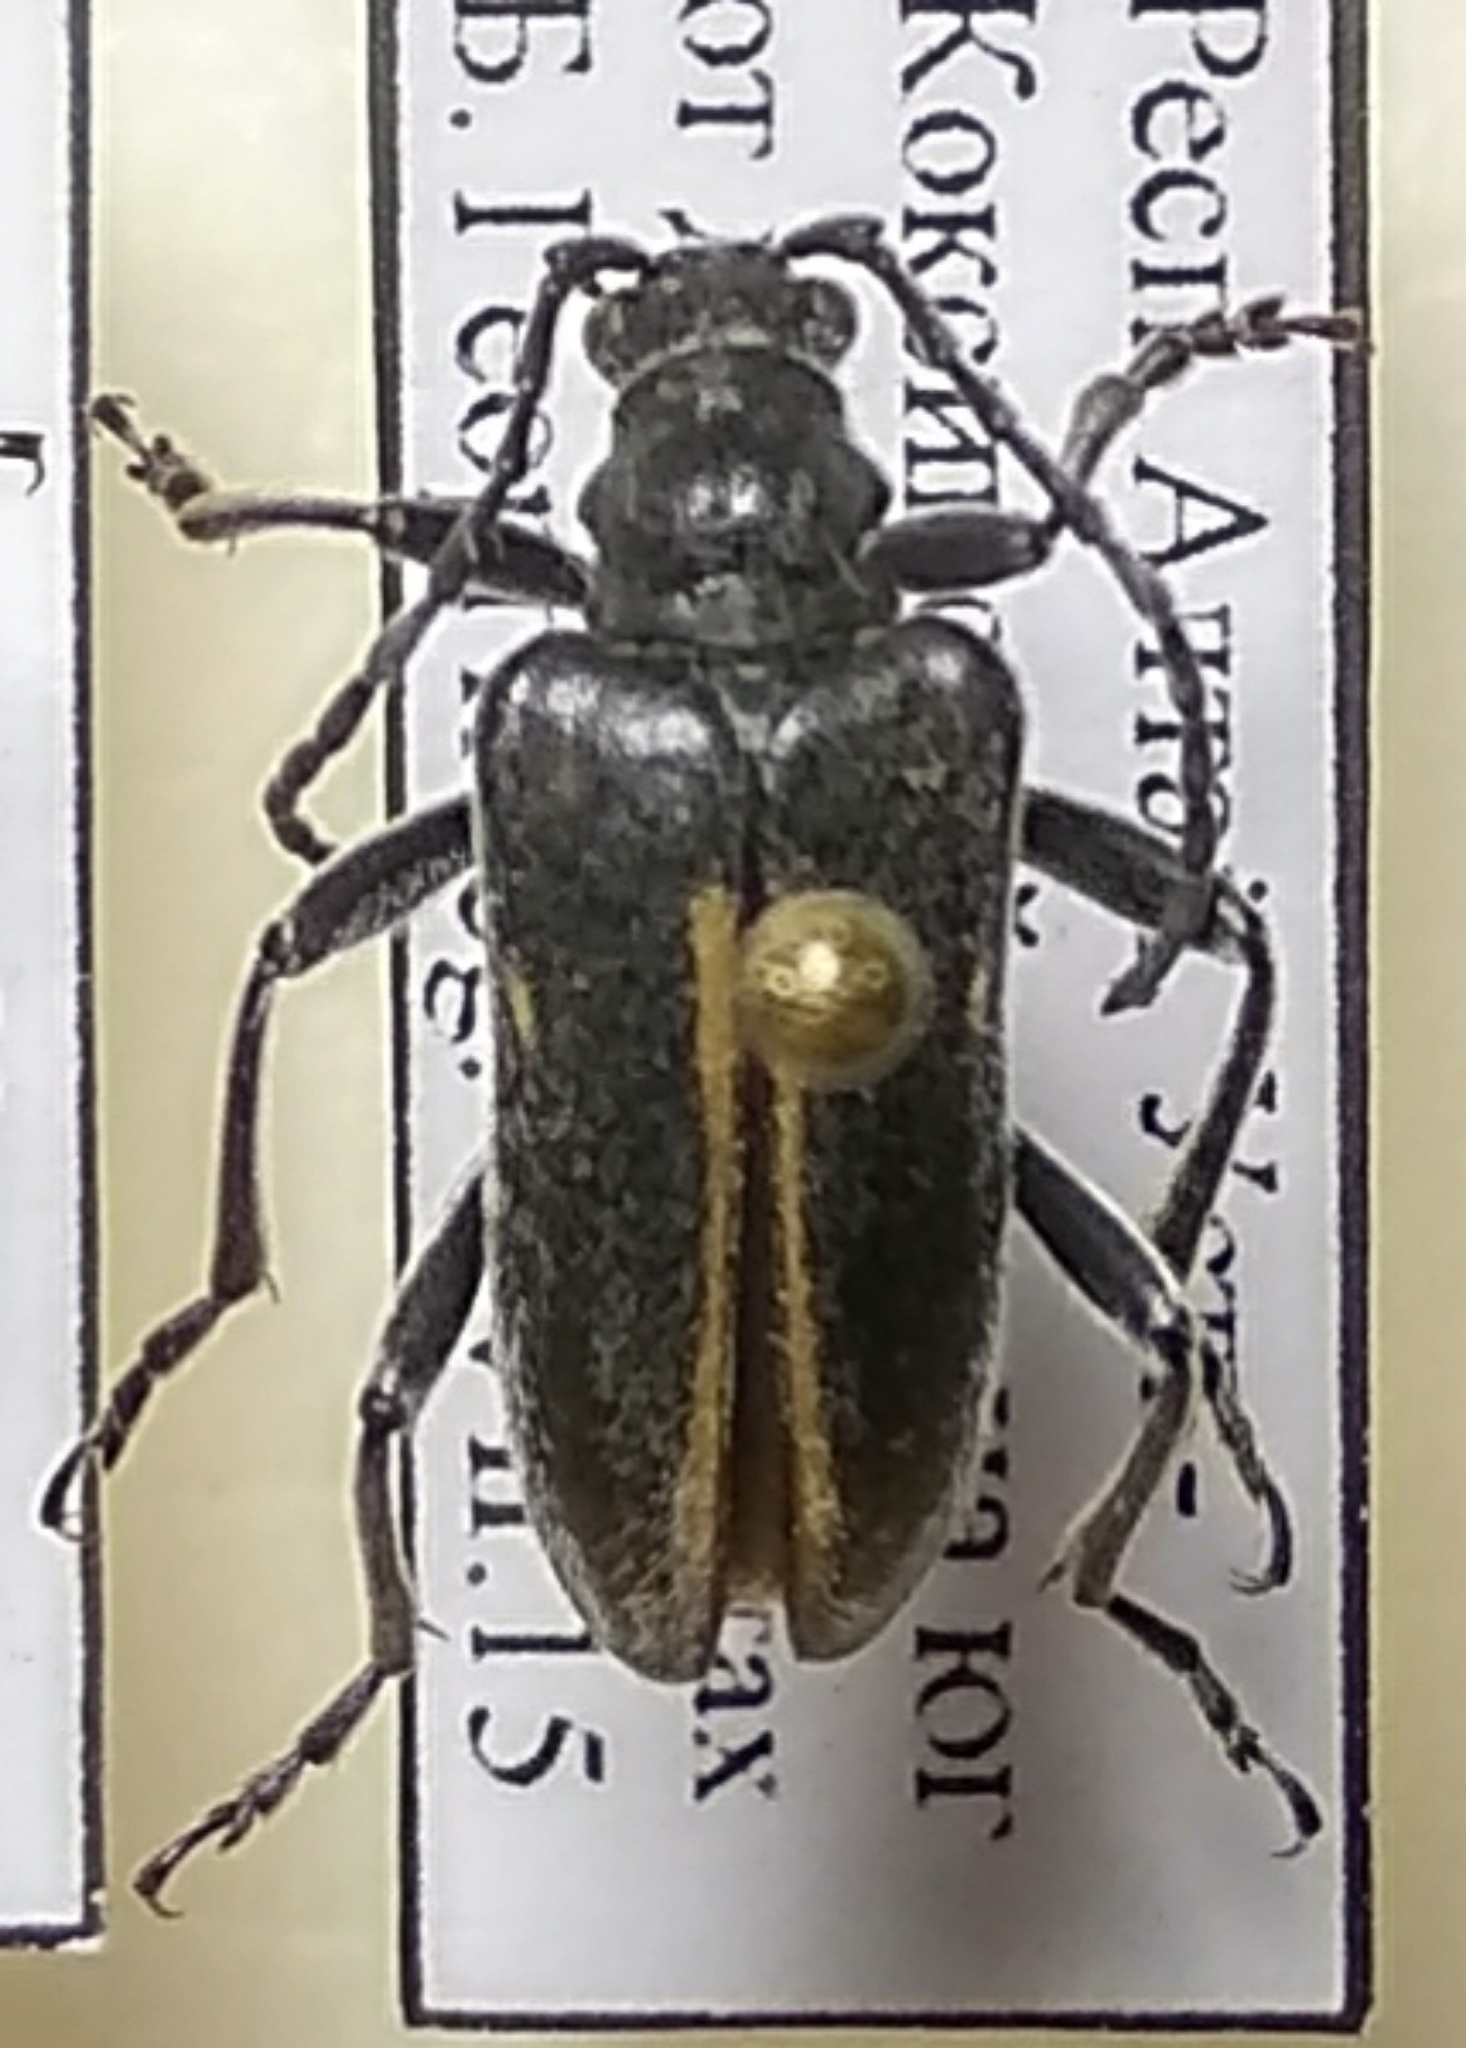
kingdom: Animalia
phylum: Arthropoda
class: Insecta
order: Coleoptera
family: Cerambycidae
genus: Brachyta
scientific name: Brachyta interrogationis
